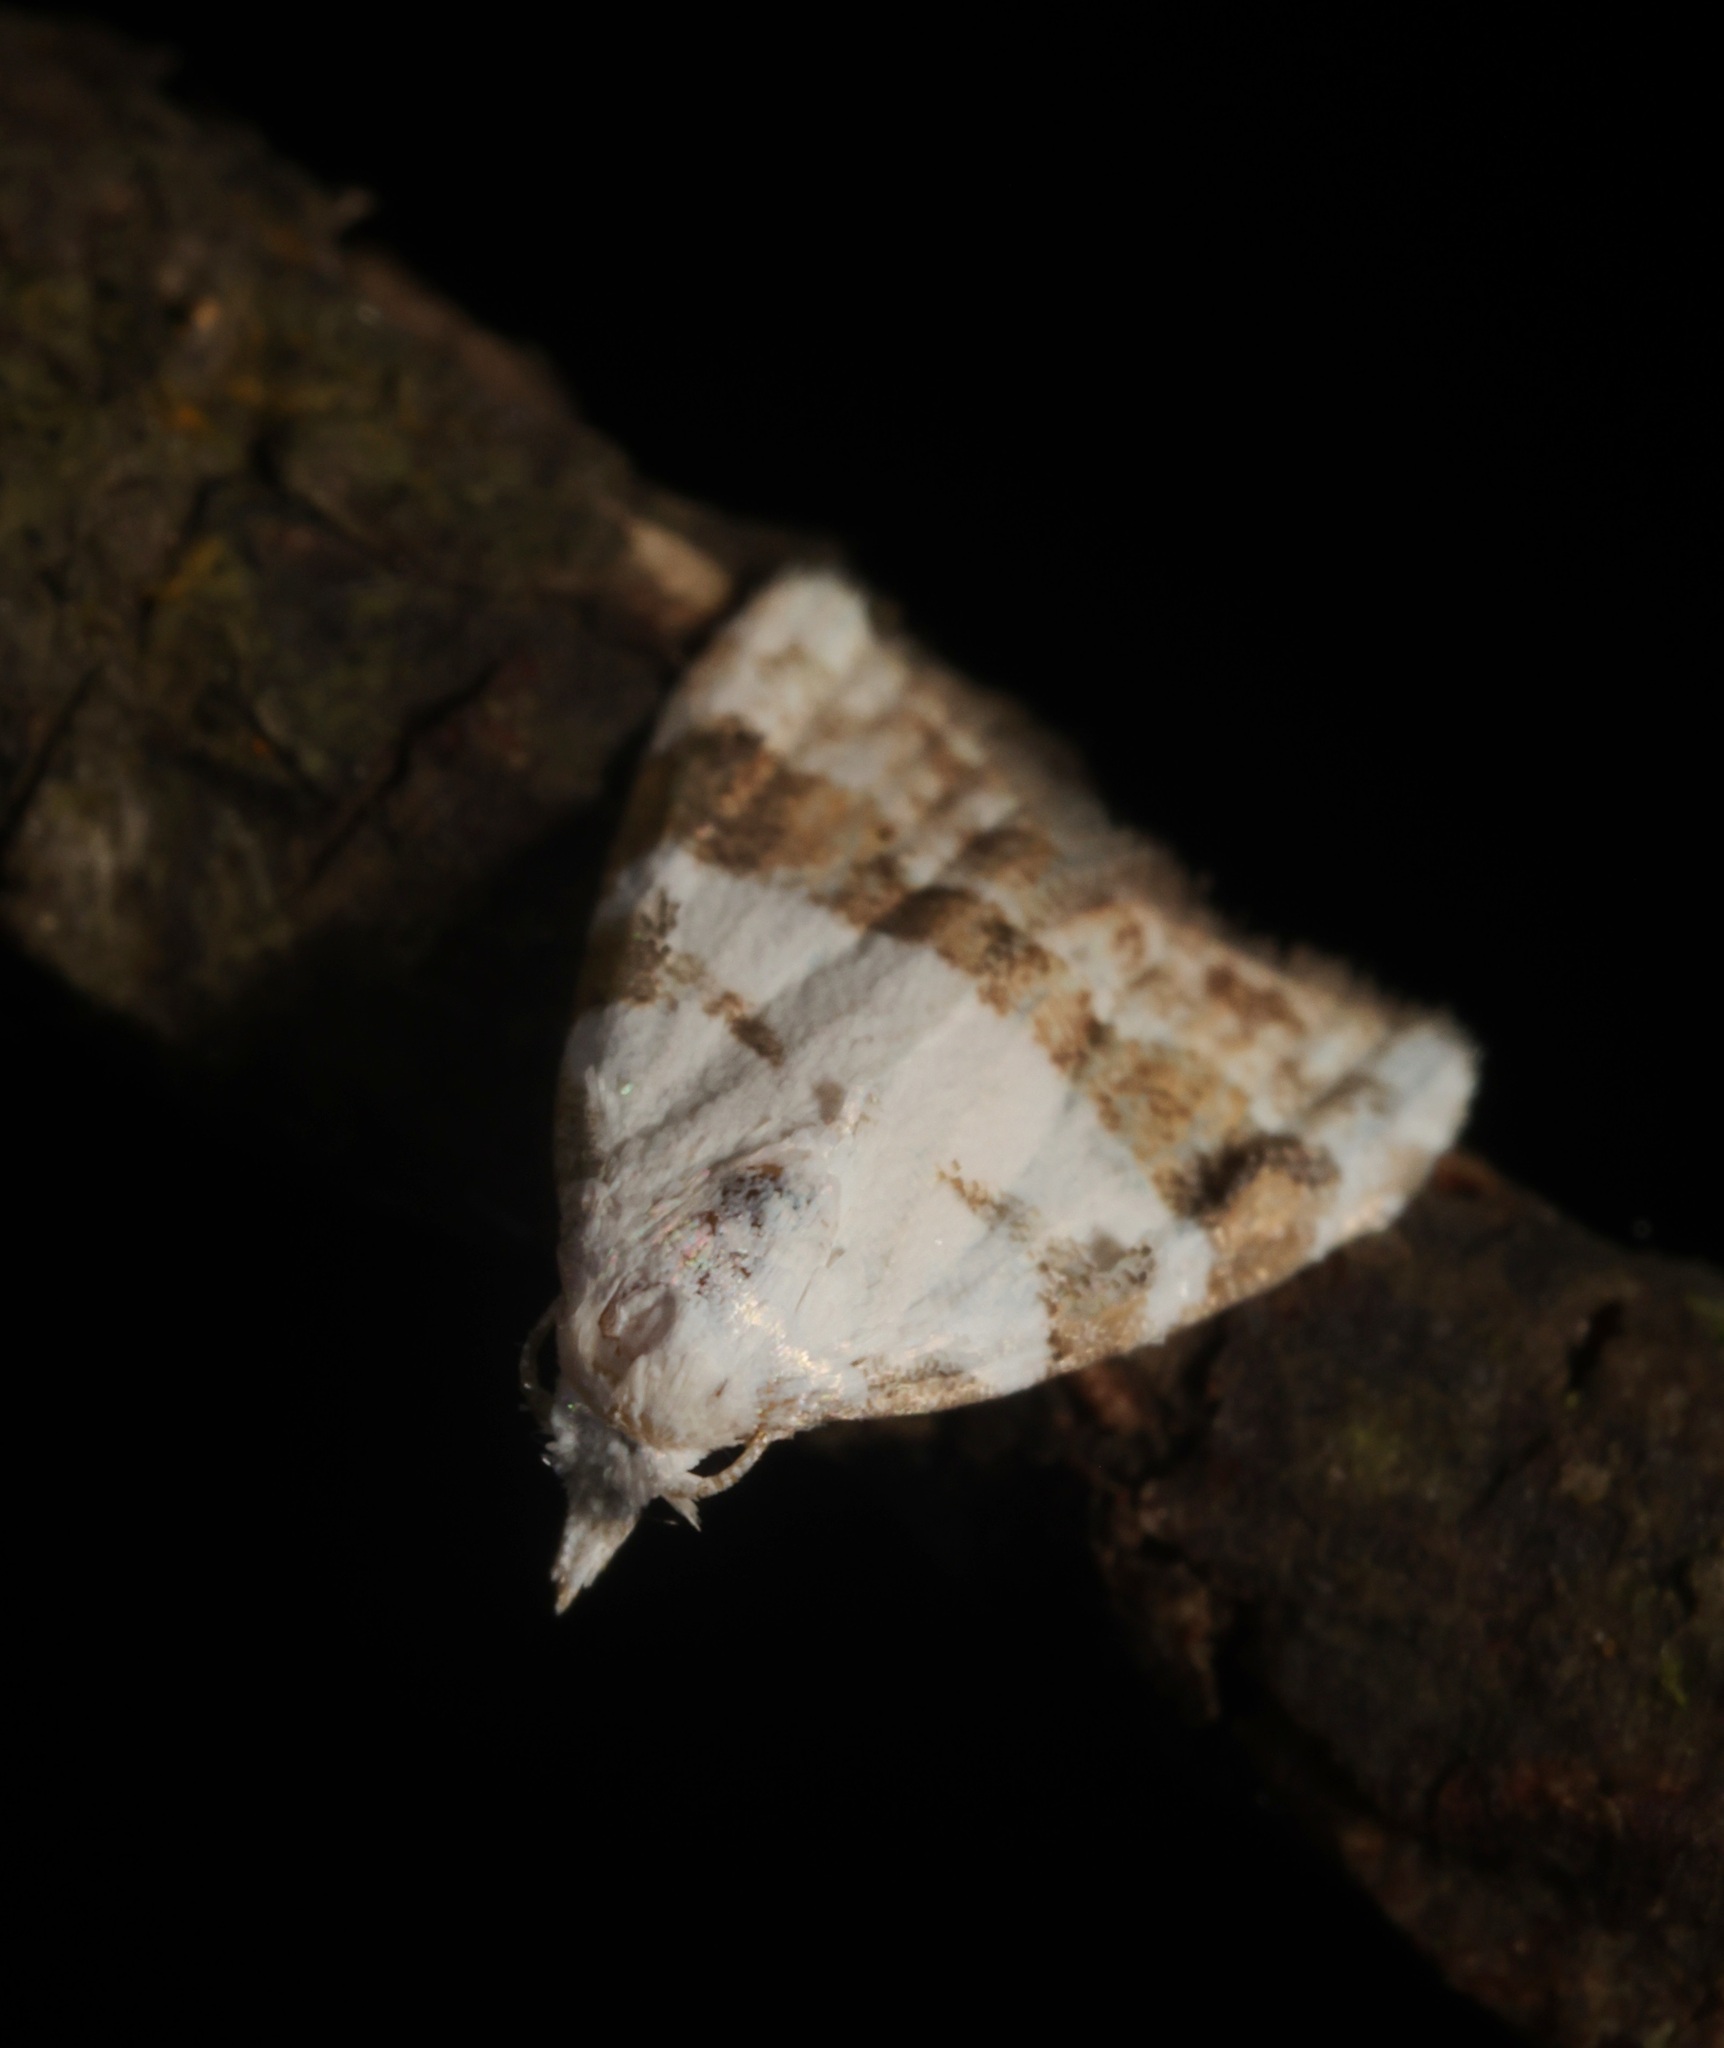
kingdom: Animalia
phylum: Arthropoda
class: Insecta
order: Lepidoptera
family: Nolidae
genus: Nola
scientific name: Nola lucidalis
